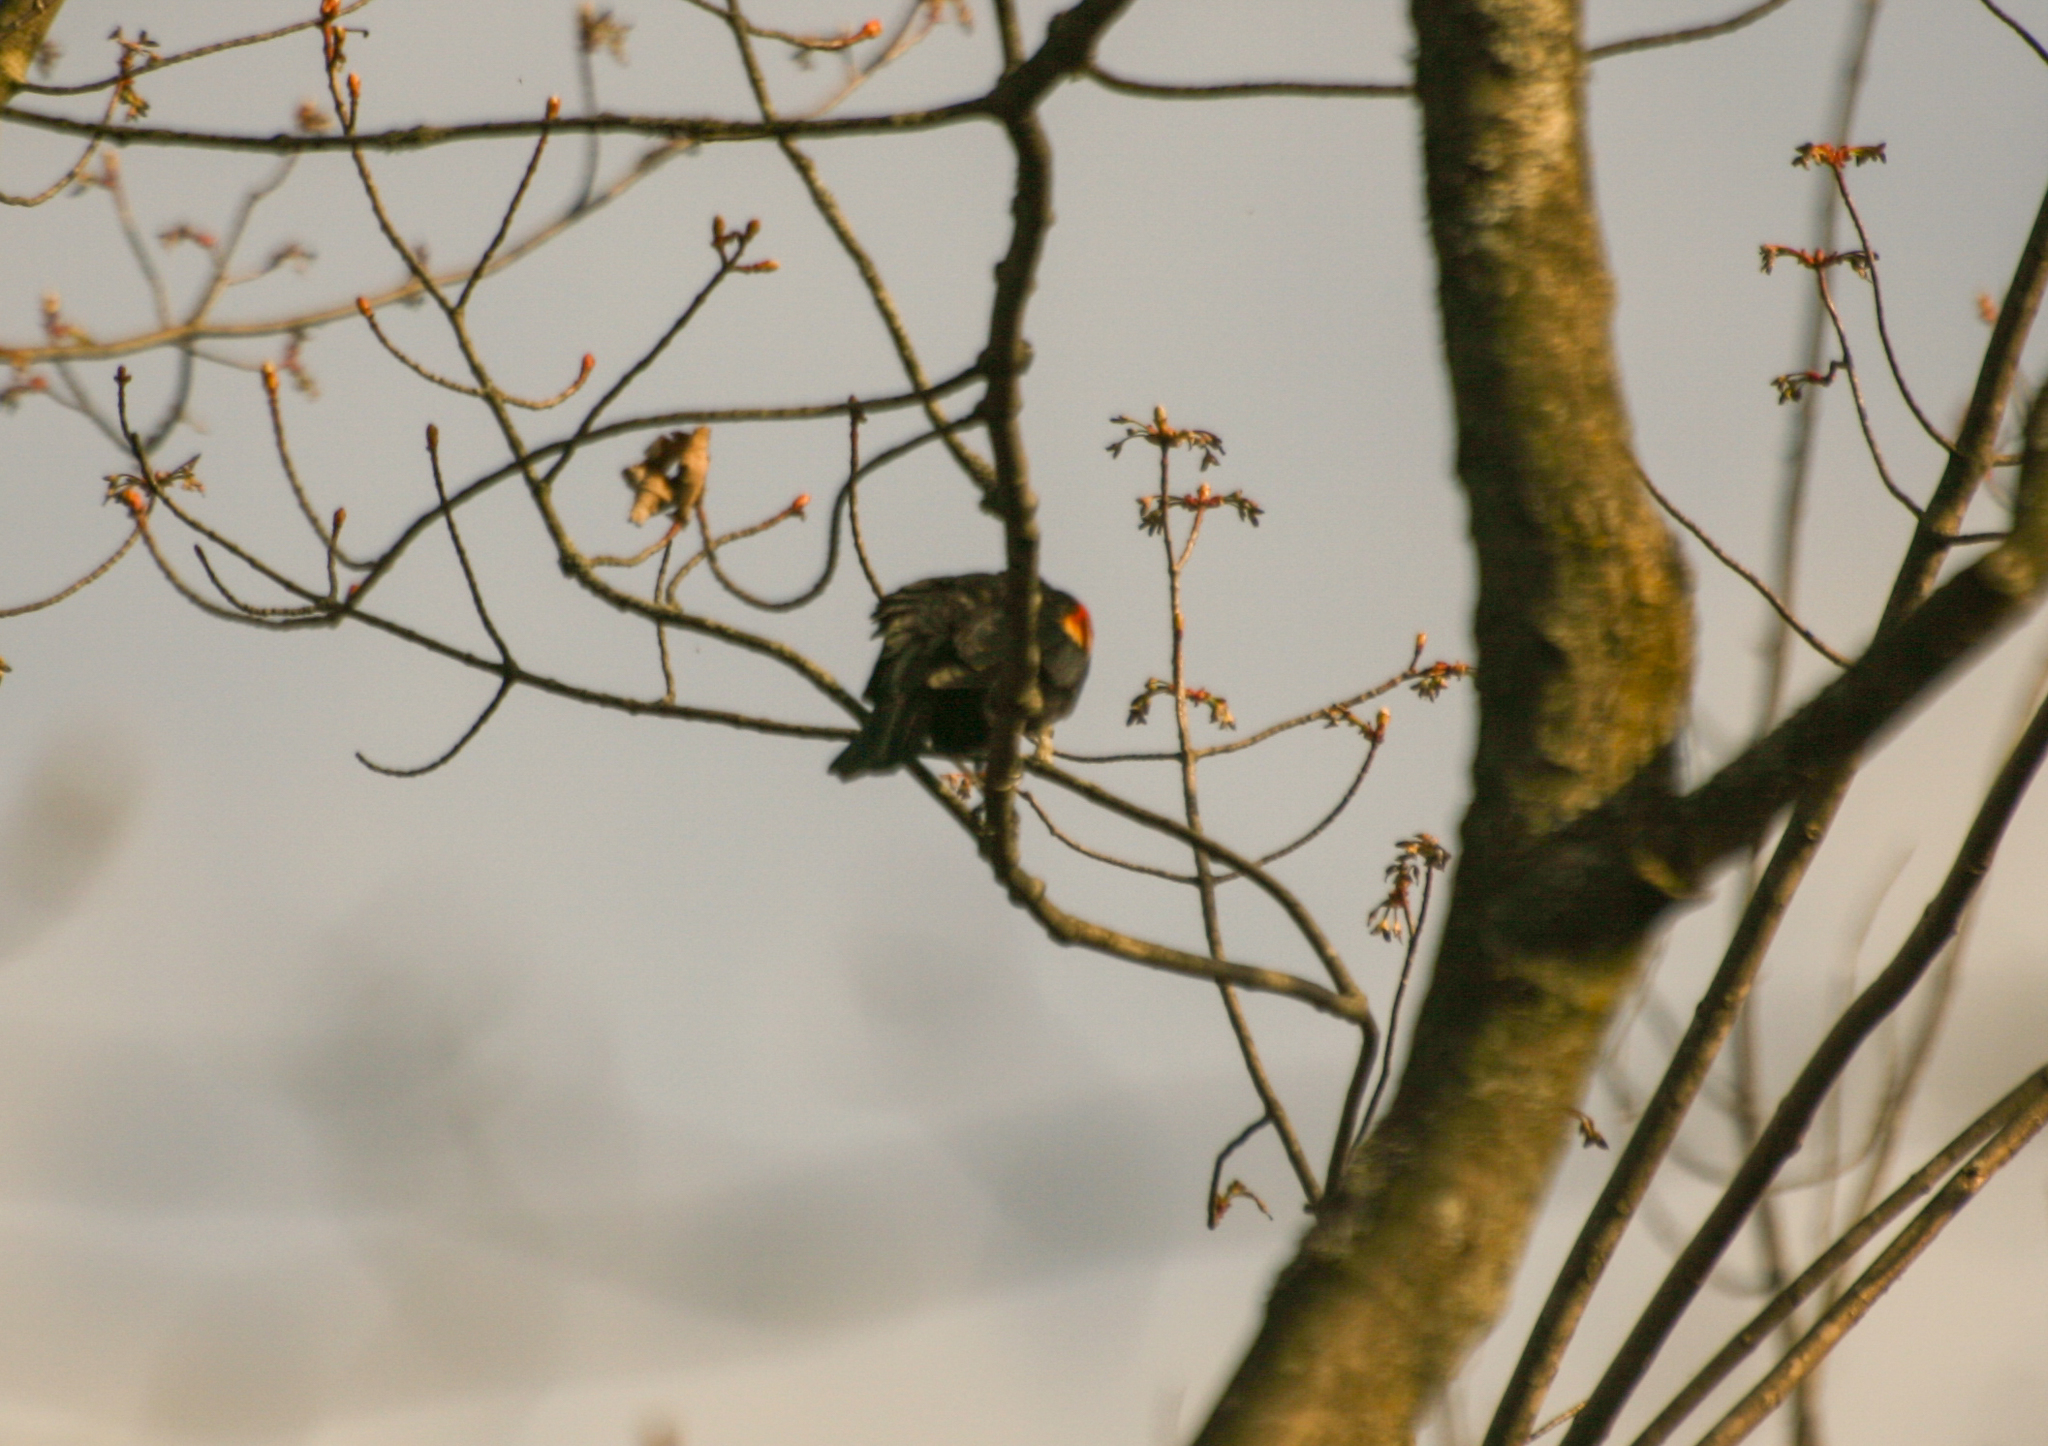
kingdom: Animalia
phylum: Chordata
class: Aves
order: Passeriformes
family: Icteridae
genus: Agelaius
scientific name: Agelaius phoeniceus
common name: Red-winged blackbird
